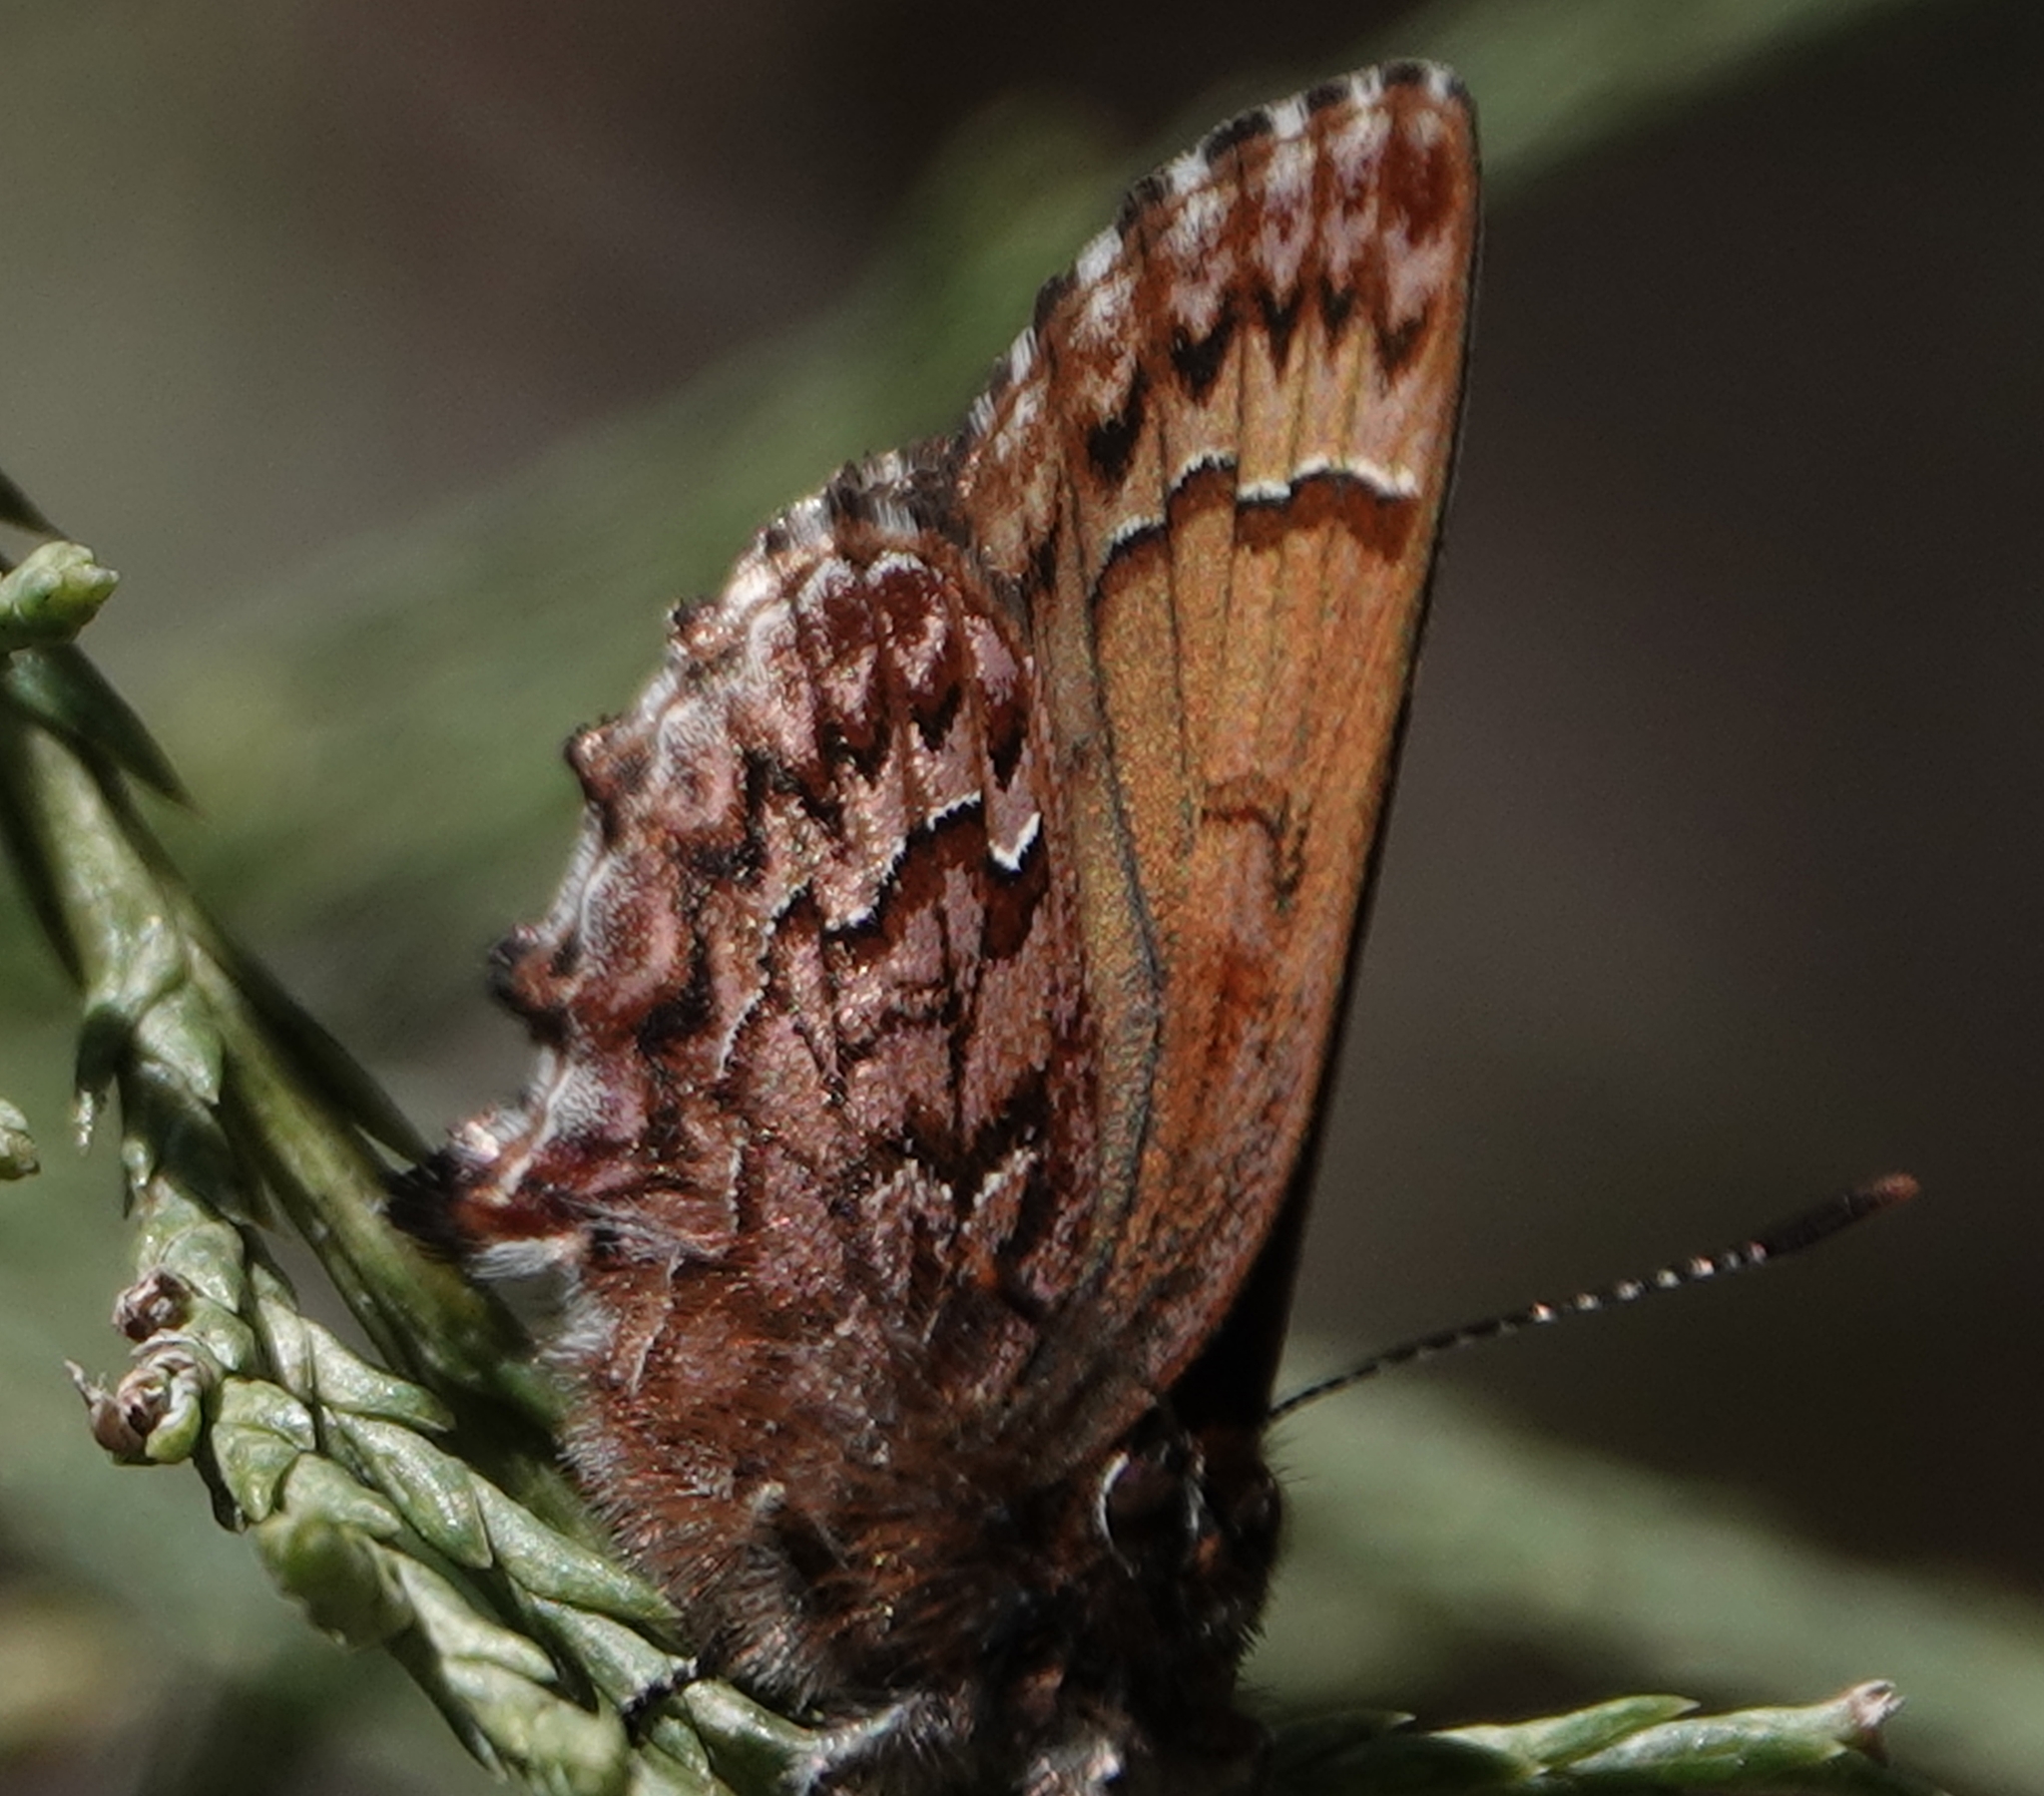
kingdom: Animalia
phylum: Arthropoda
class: Insecta
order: Lepidoptera
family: Lycaenidae
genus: Incisalia
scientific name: Incisalia eryphon
